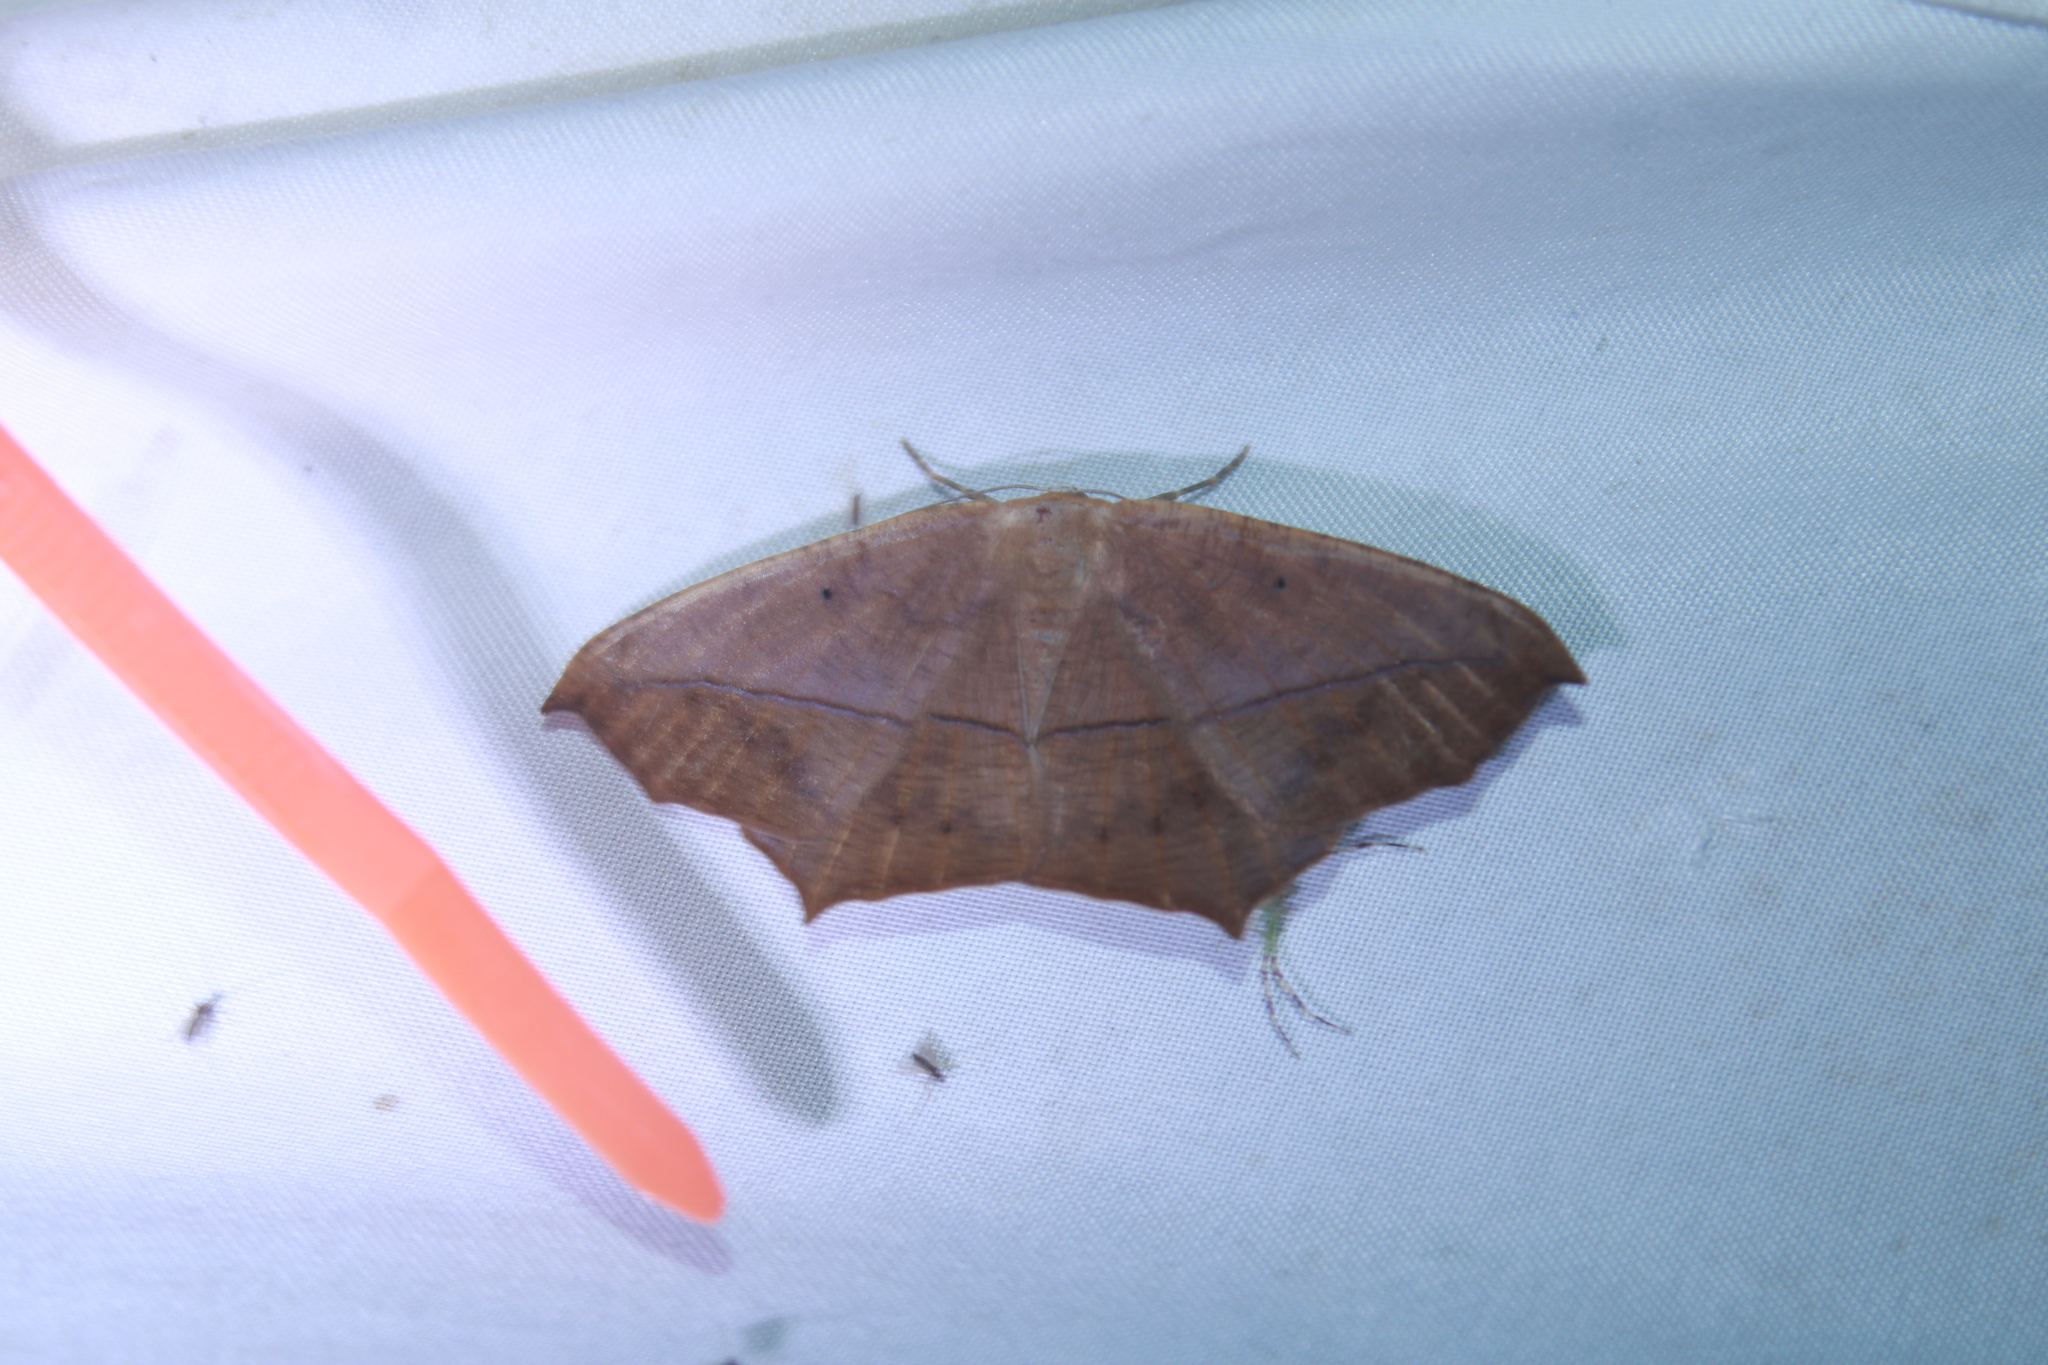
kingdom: Animalia
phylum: Arthropoda
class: Insecta
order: Lepidoptera
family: Geometridae
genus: Prochoerodes
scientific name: Prochoerodes lineola
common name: Large maple spanworm
